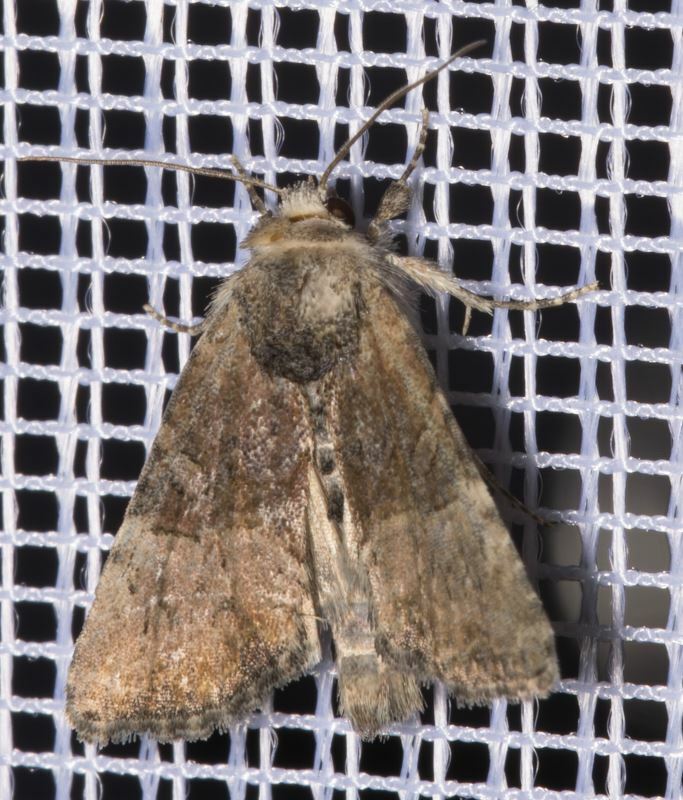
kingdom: Animalia
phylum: Arthropoda
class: Insecta
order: Lepidoptera
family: Noctuidae
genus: Mesoligia
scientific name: Mesoligia furuncula
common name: Cloaked minor
